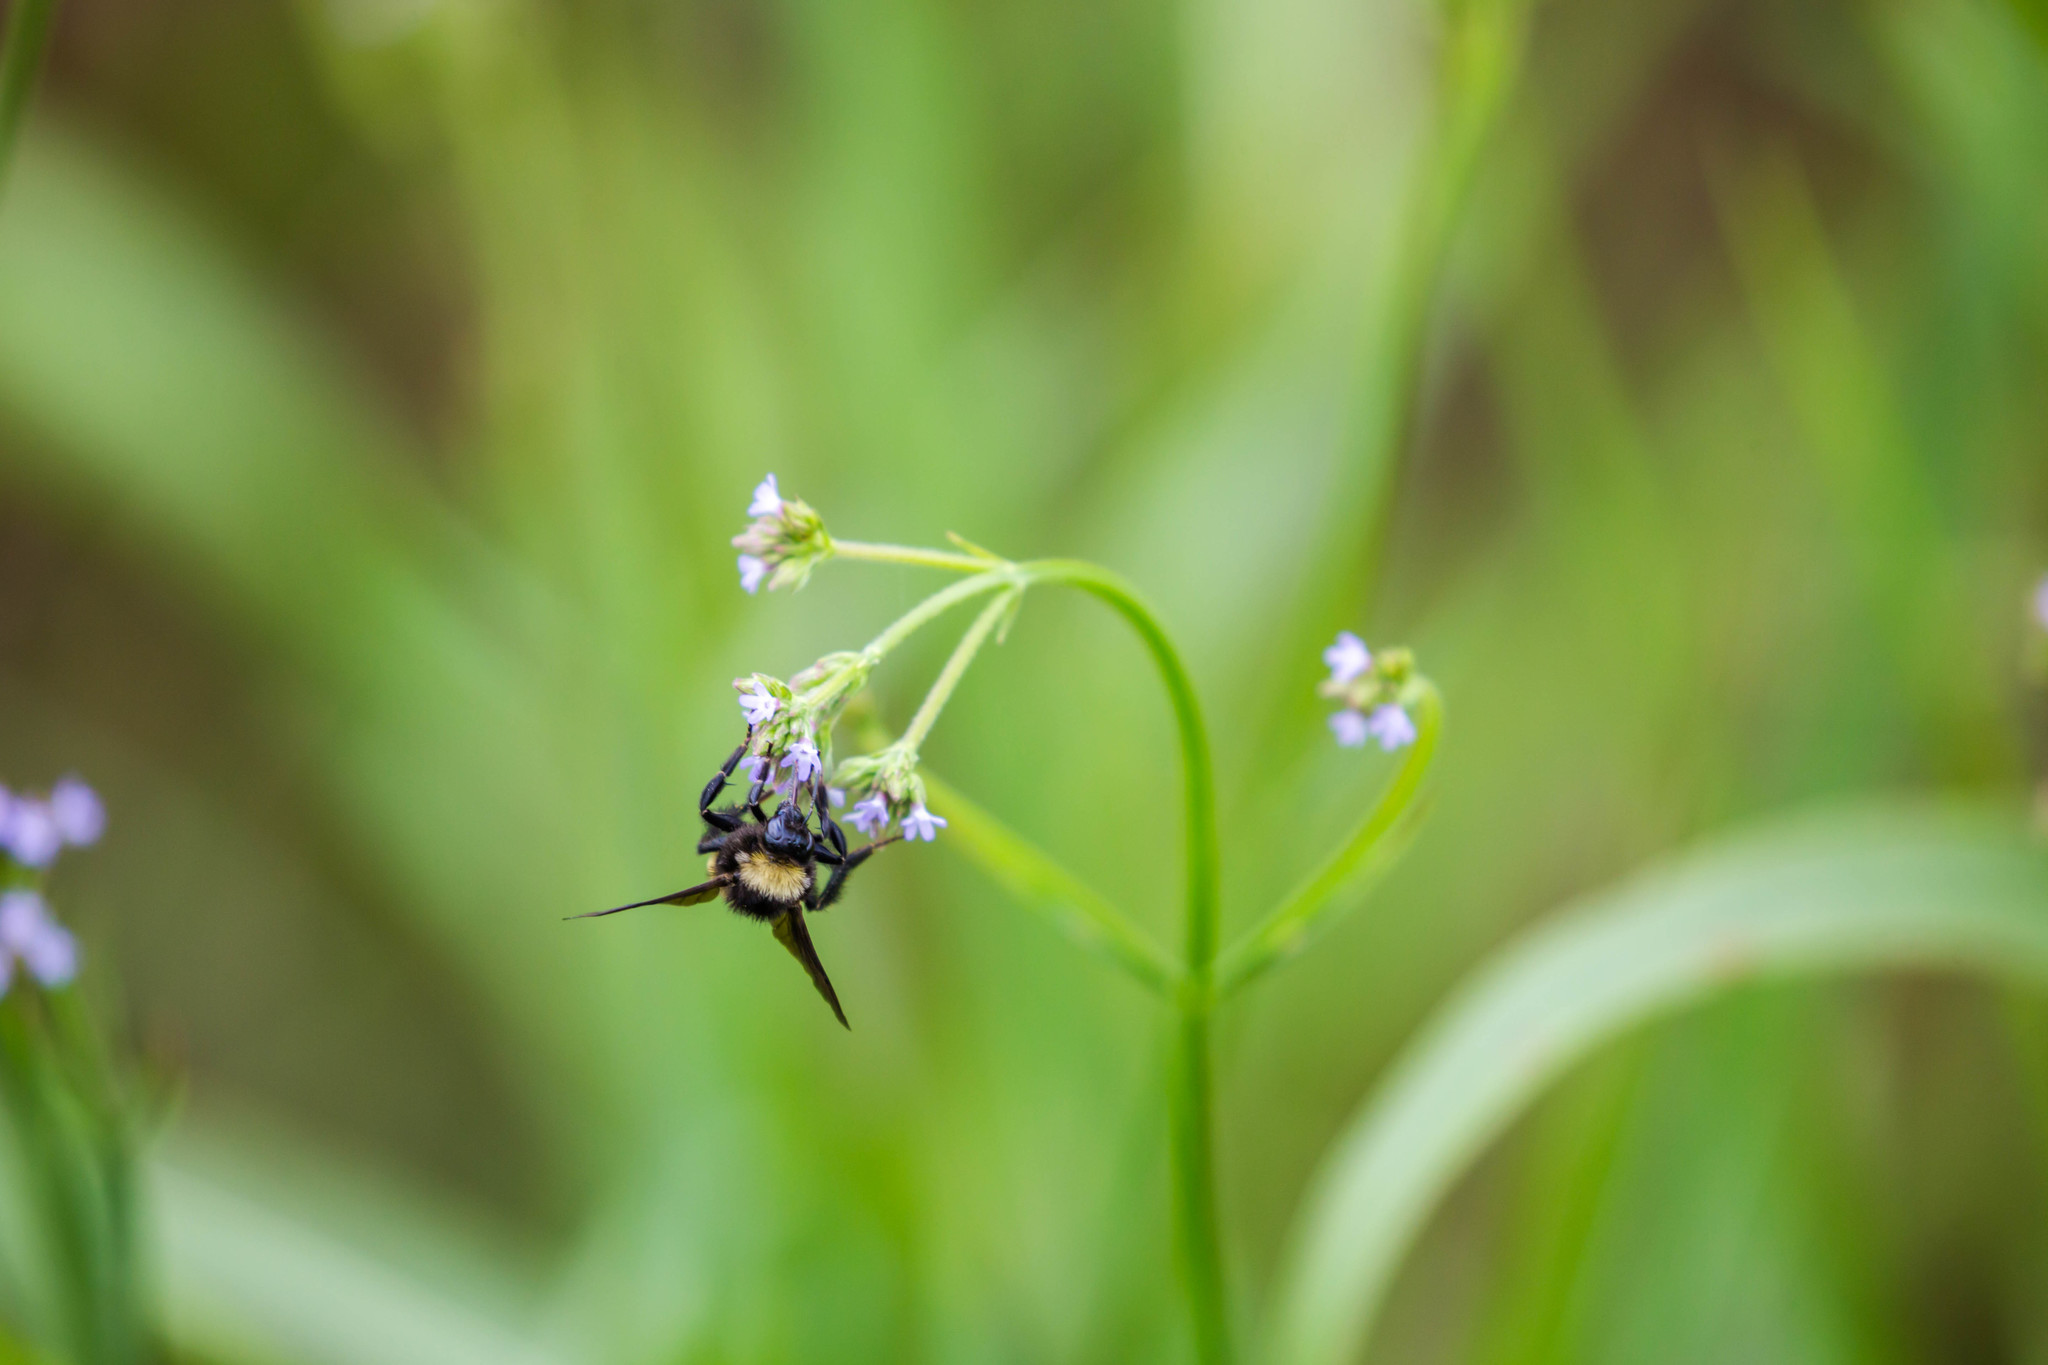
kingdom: Animalia
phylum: Arthropoda
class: Insecta
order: Hymenoptera
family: Apidae
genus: Bombus
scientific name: Bombus pensylvanicus
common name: Bumble bee
